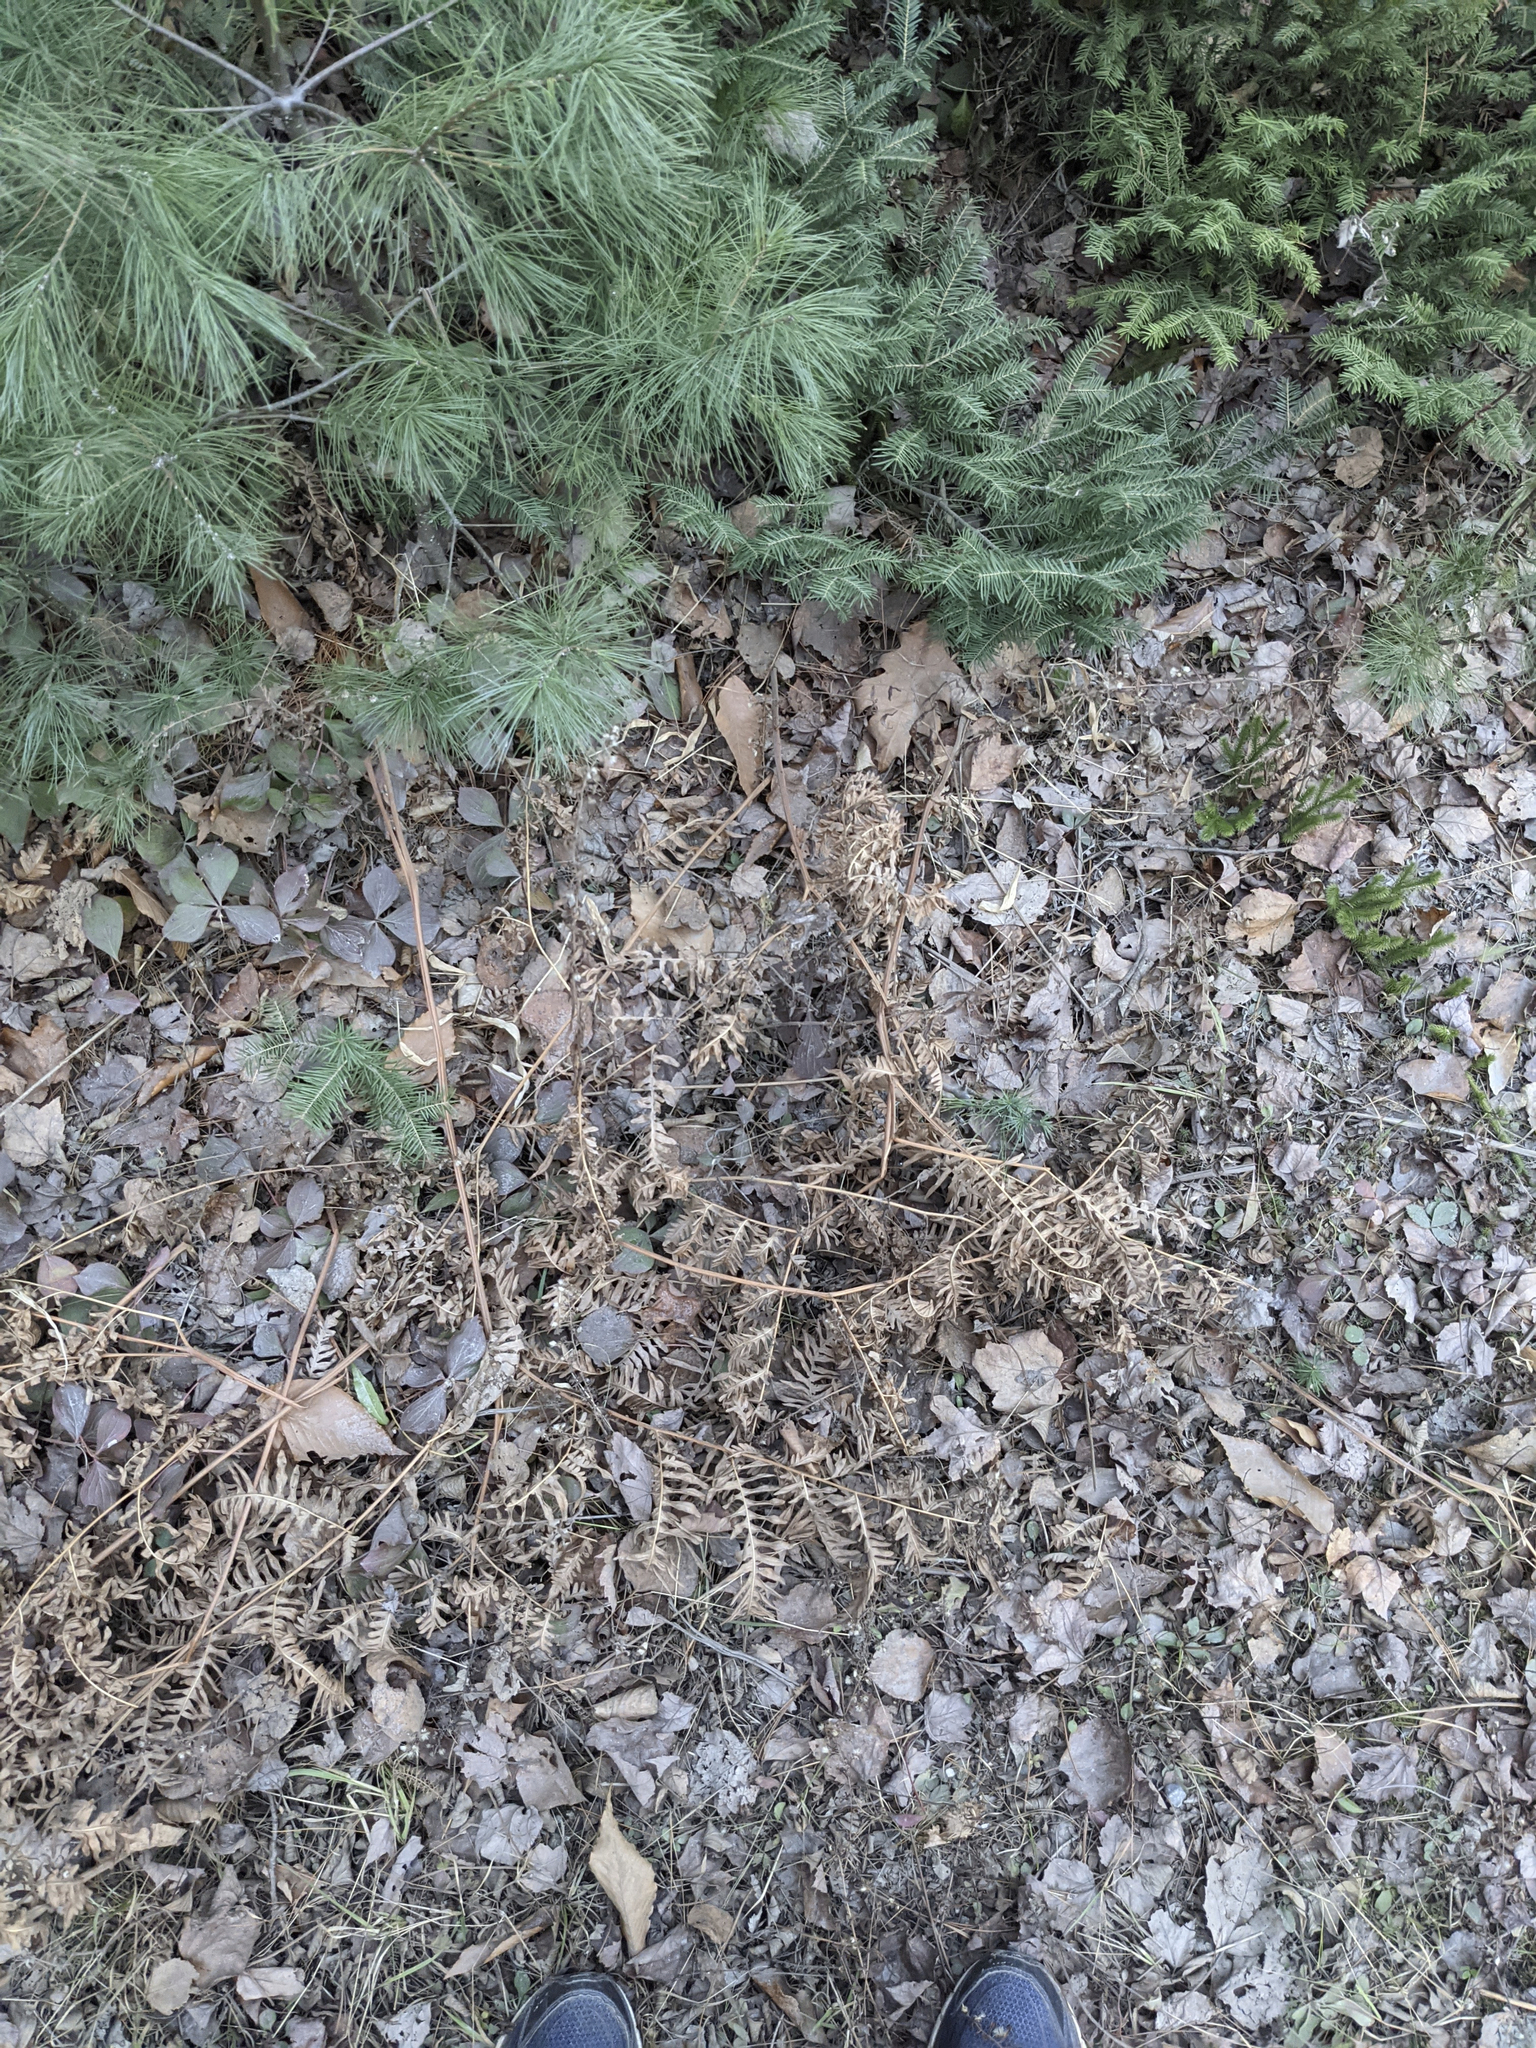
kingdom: Plantae
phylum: Tracheophyta
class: Polypodiopsida
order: Polypodiales
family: Dennstaedtiaceae
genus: Pteridium
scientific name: Pteridium aquilinum
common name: Bracken
